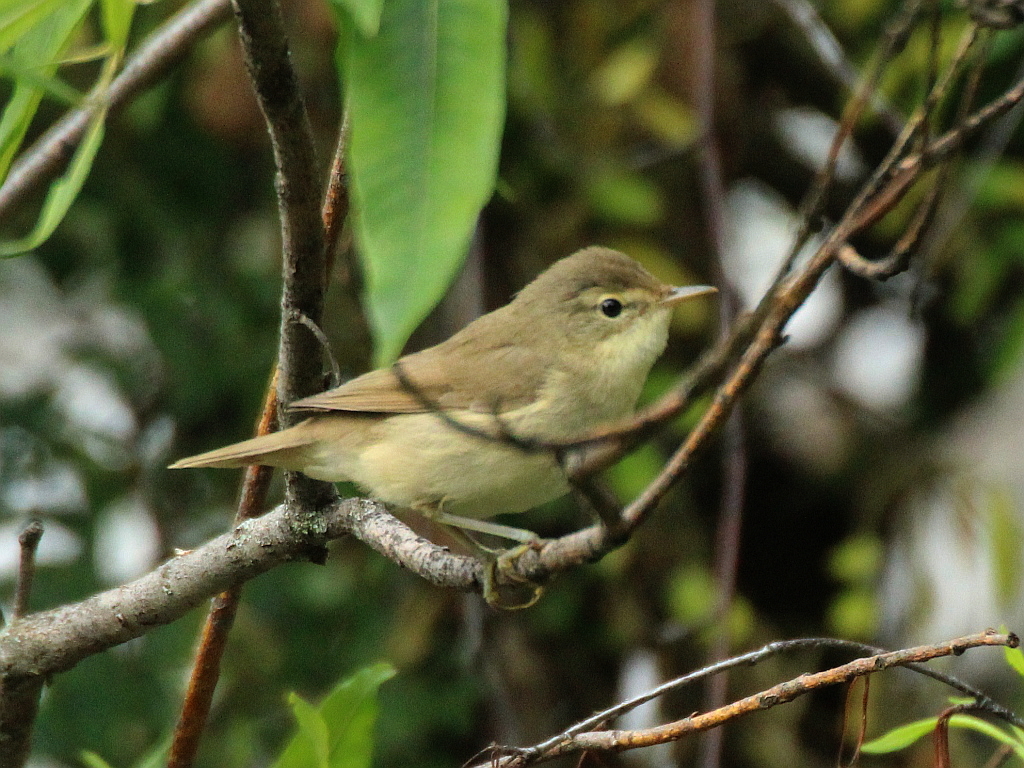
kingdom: Animalia
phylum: Chordata
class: Aves
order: Passeriformes
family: Acrocephalidae
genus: Acrocephalus
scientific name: Acrocephalus dumetorum
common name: Blyth's reed warbler
